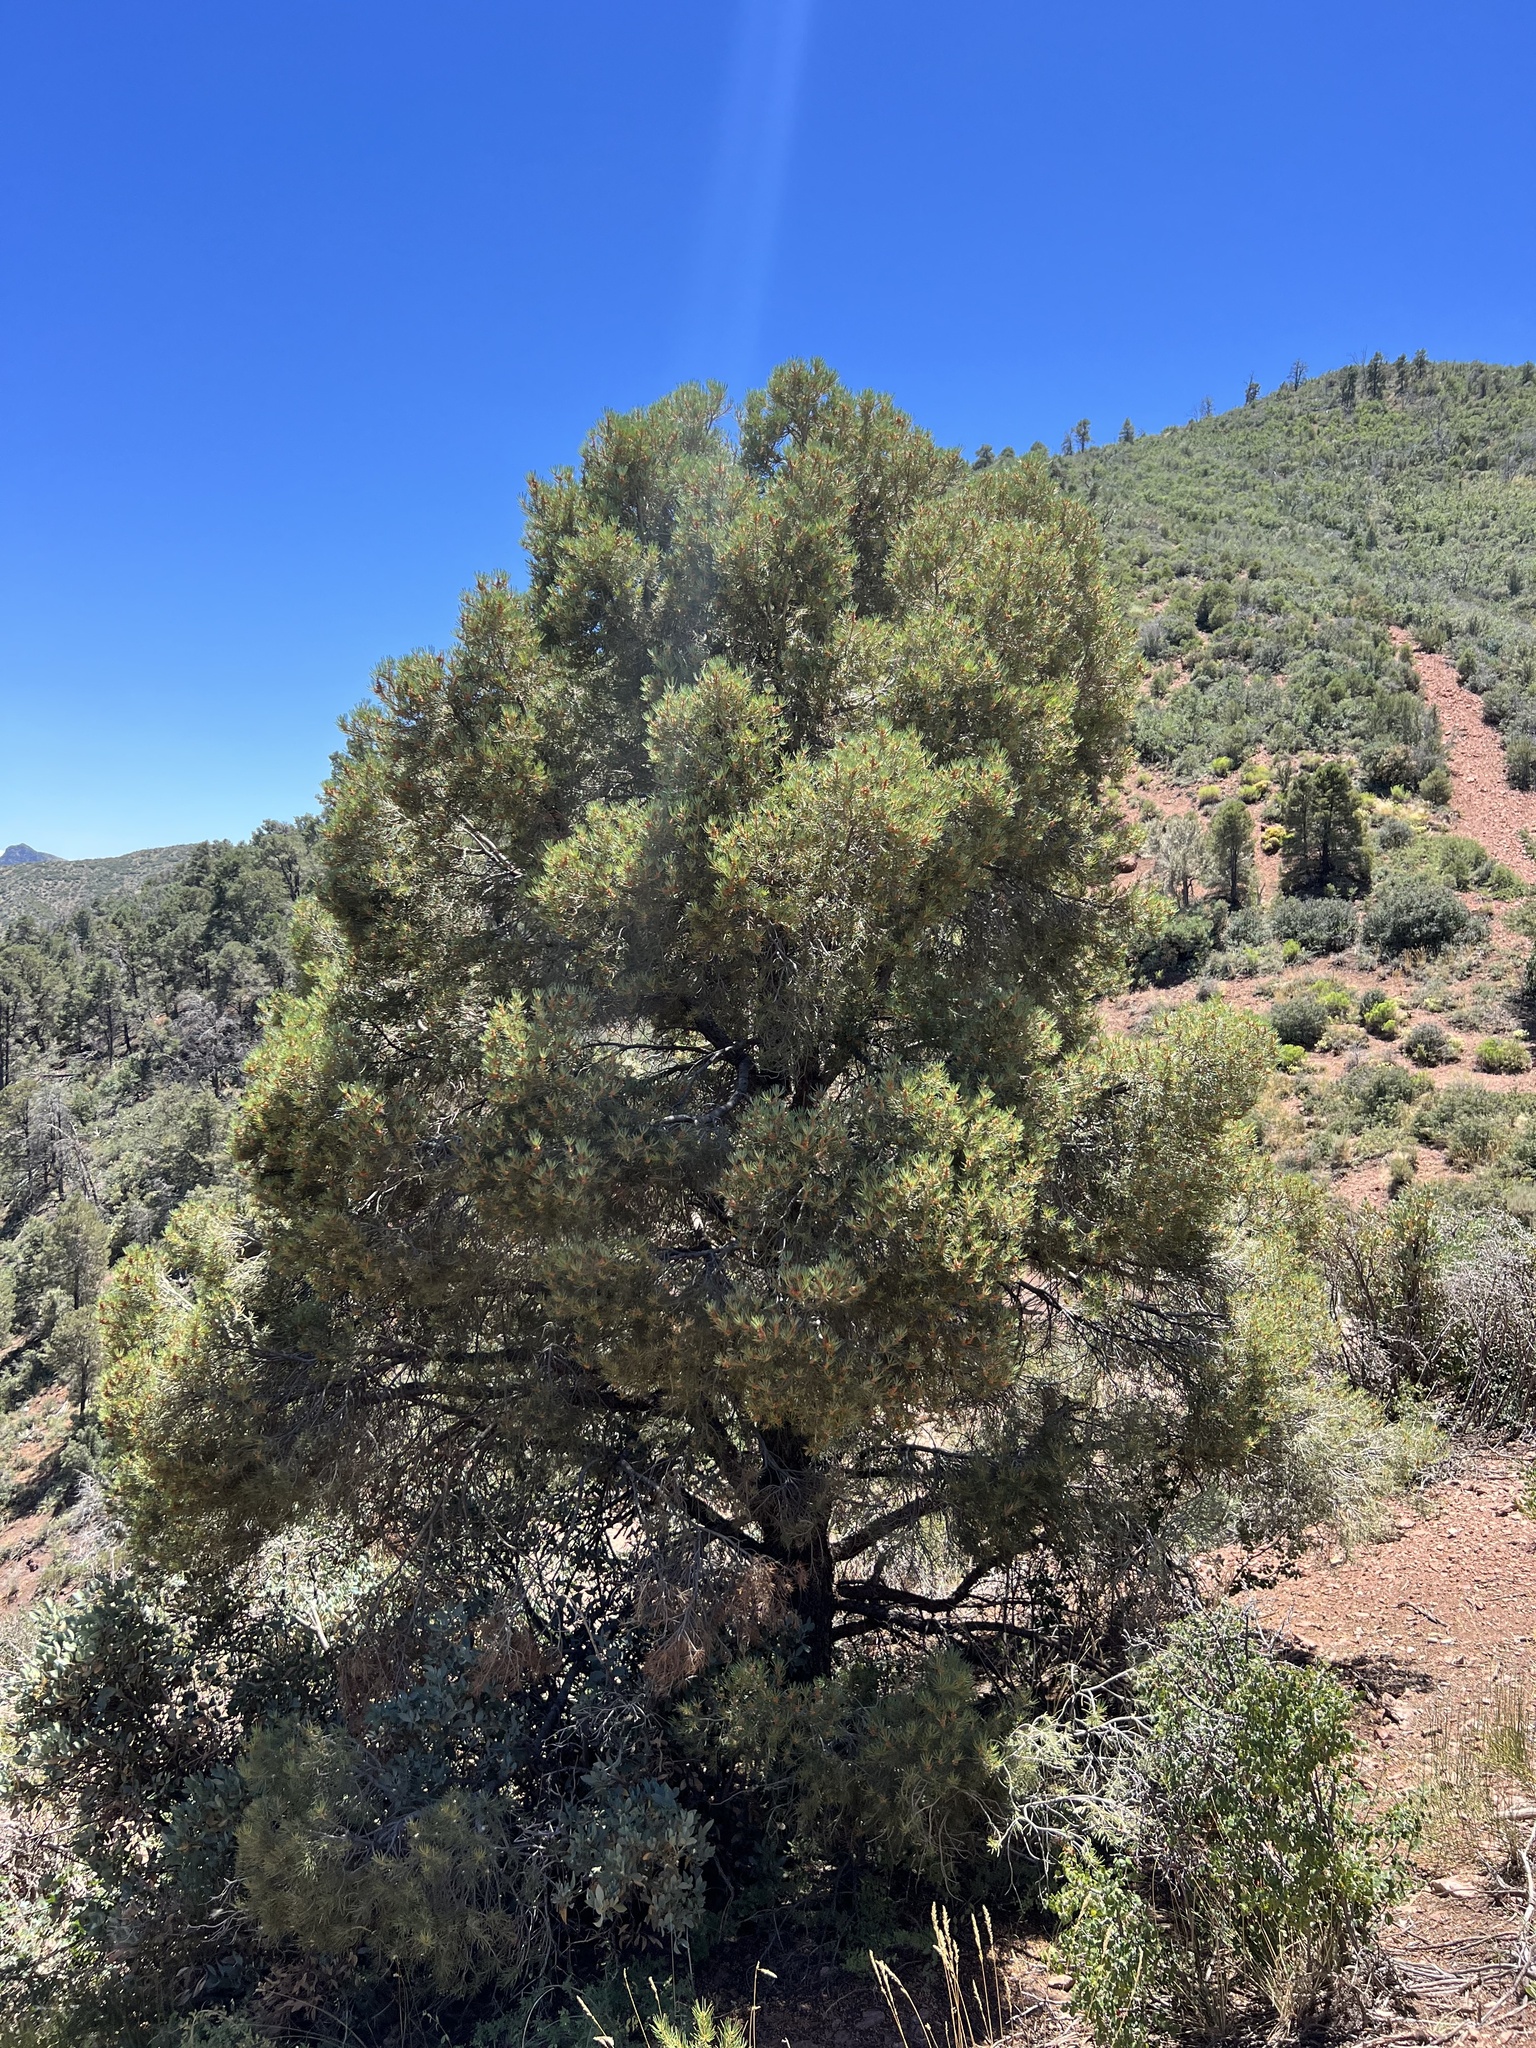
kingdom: Plantae
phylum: Tracheophyta
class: Pinopsida
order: Pinales
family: Pinaceae
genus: Pinus
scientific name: Pinus monophylla
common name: One-leaved nut pine
